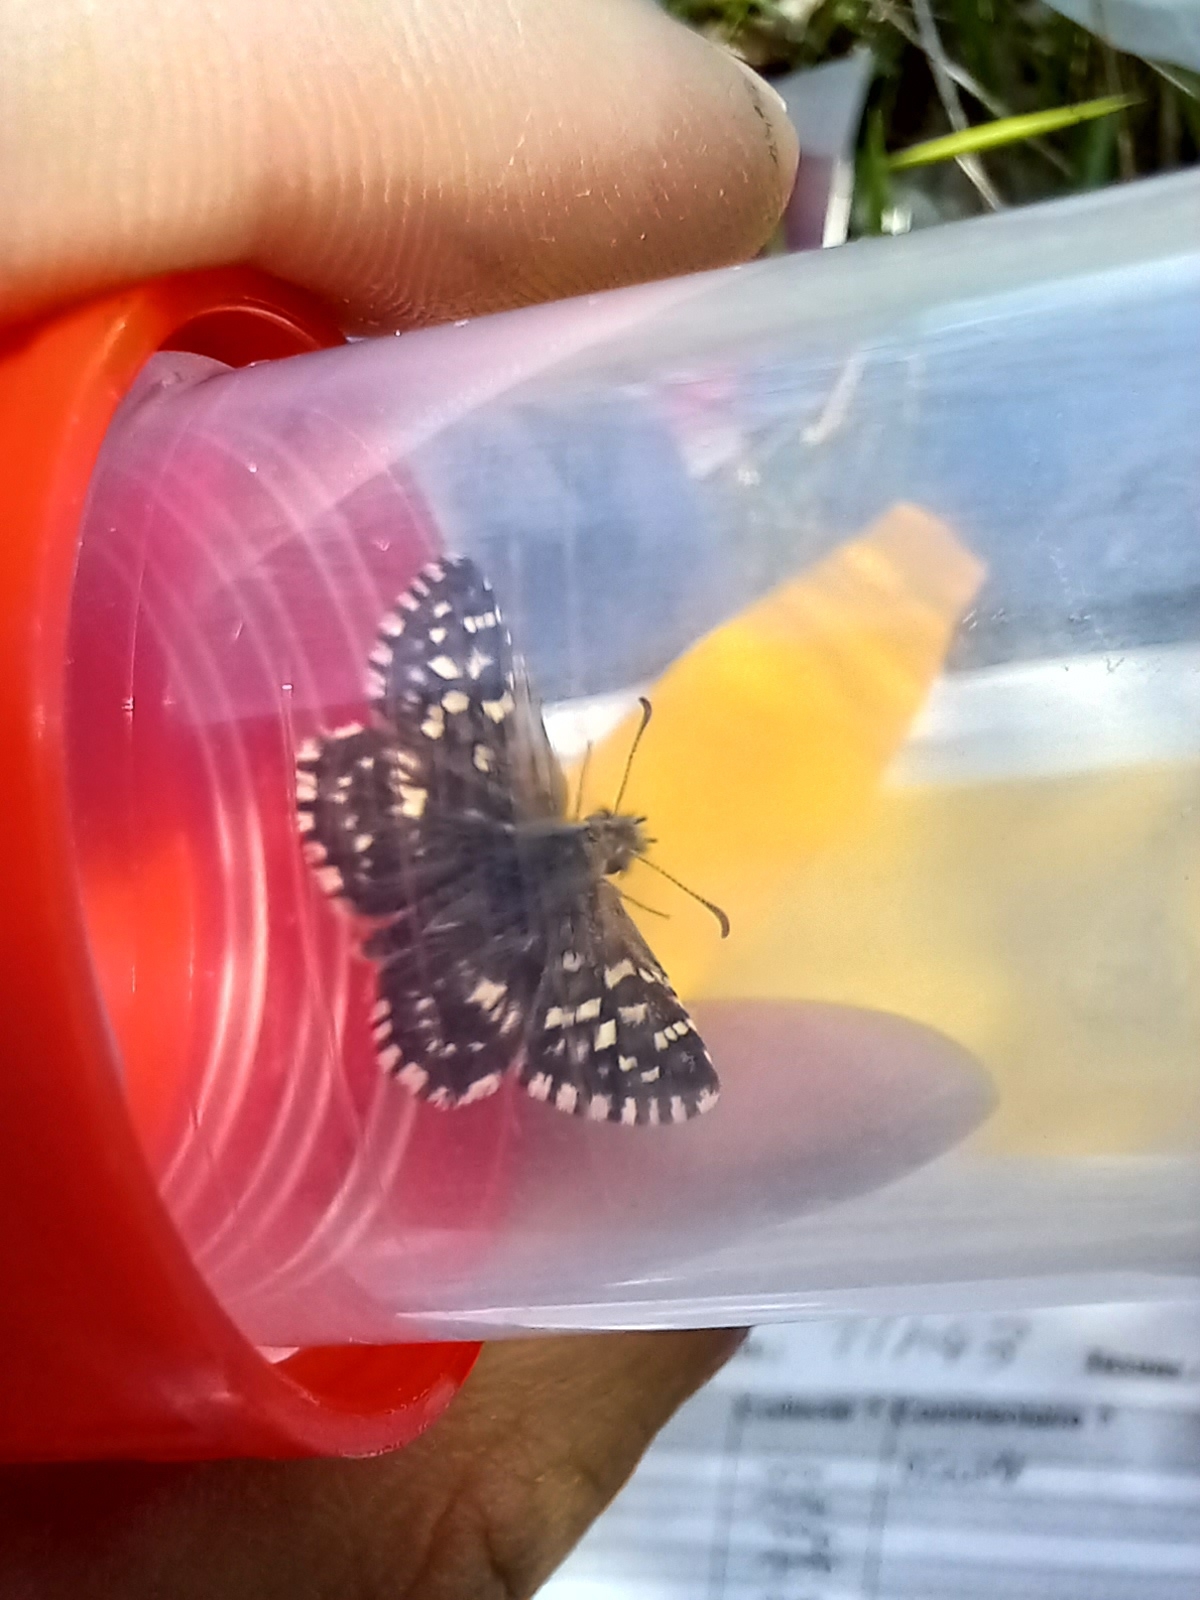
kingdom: Animalia
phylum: Arthropoda
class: Insecta
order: Lepidoptera
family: Hesperiidae
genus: Pyrgus
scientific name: Pyrgus malvae
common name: Grizzled skipper
